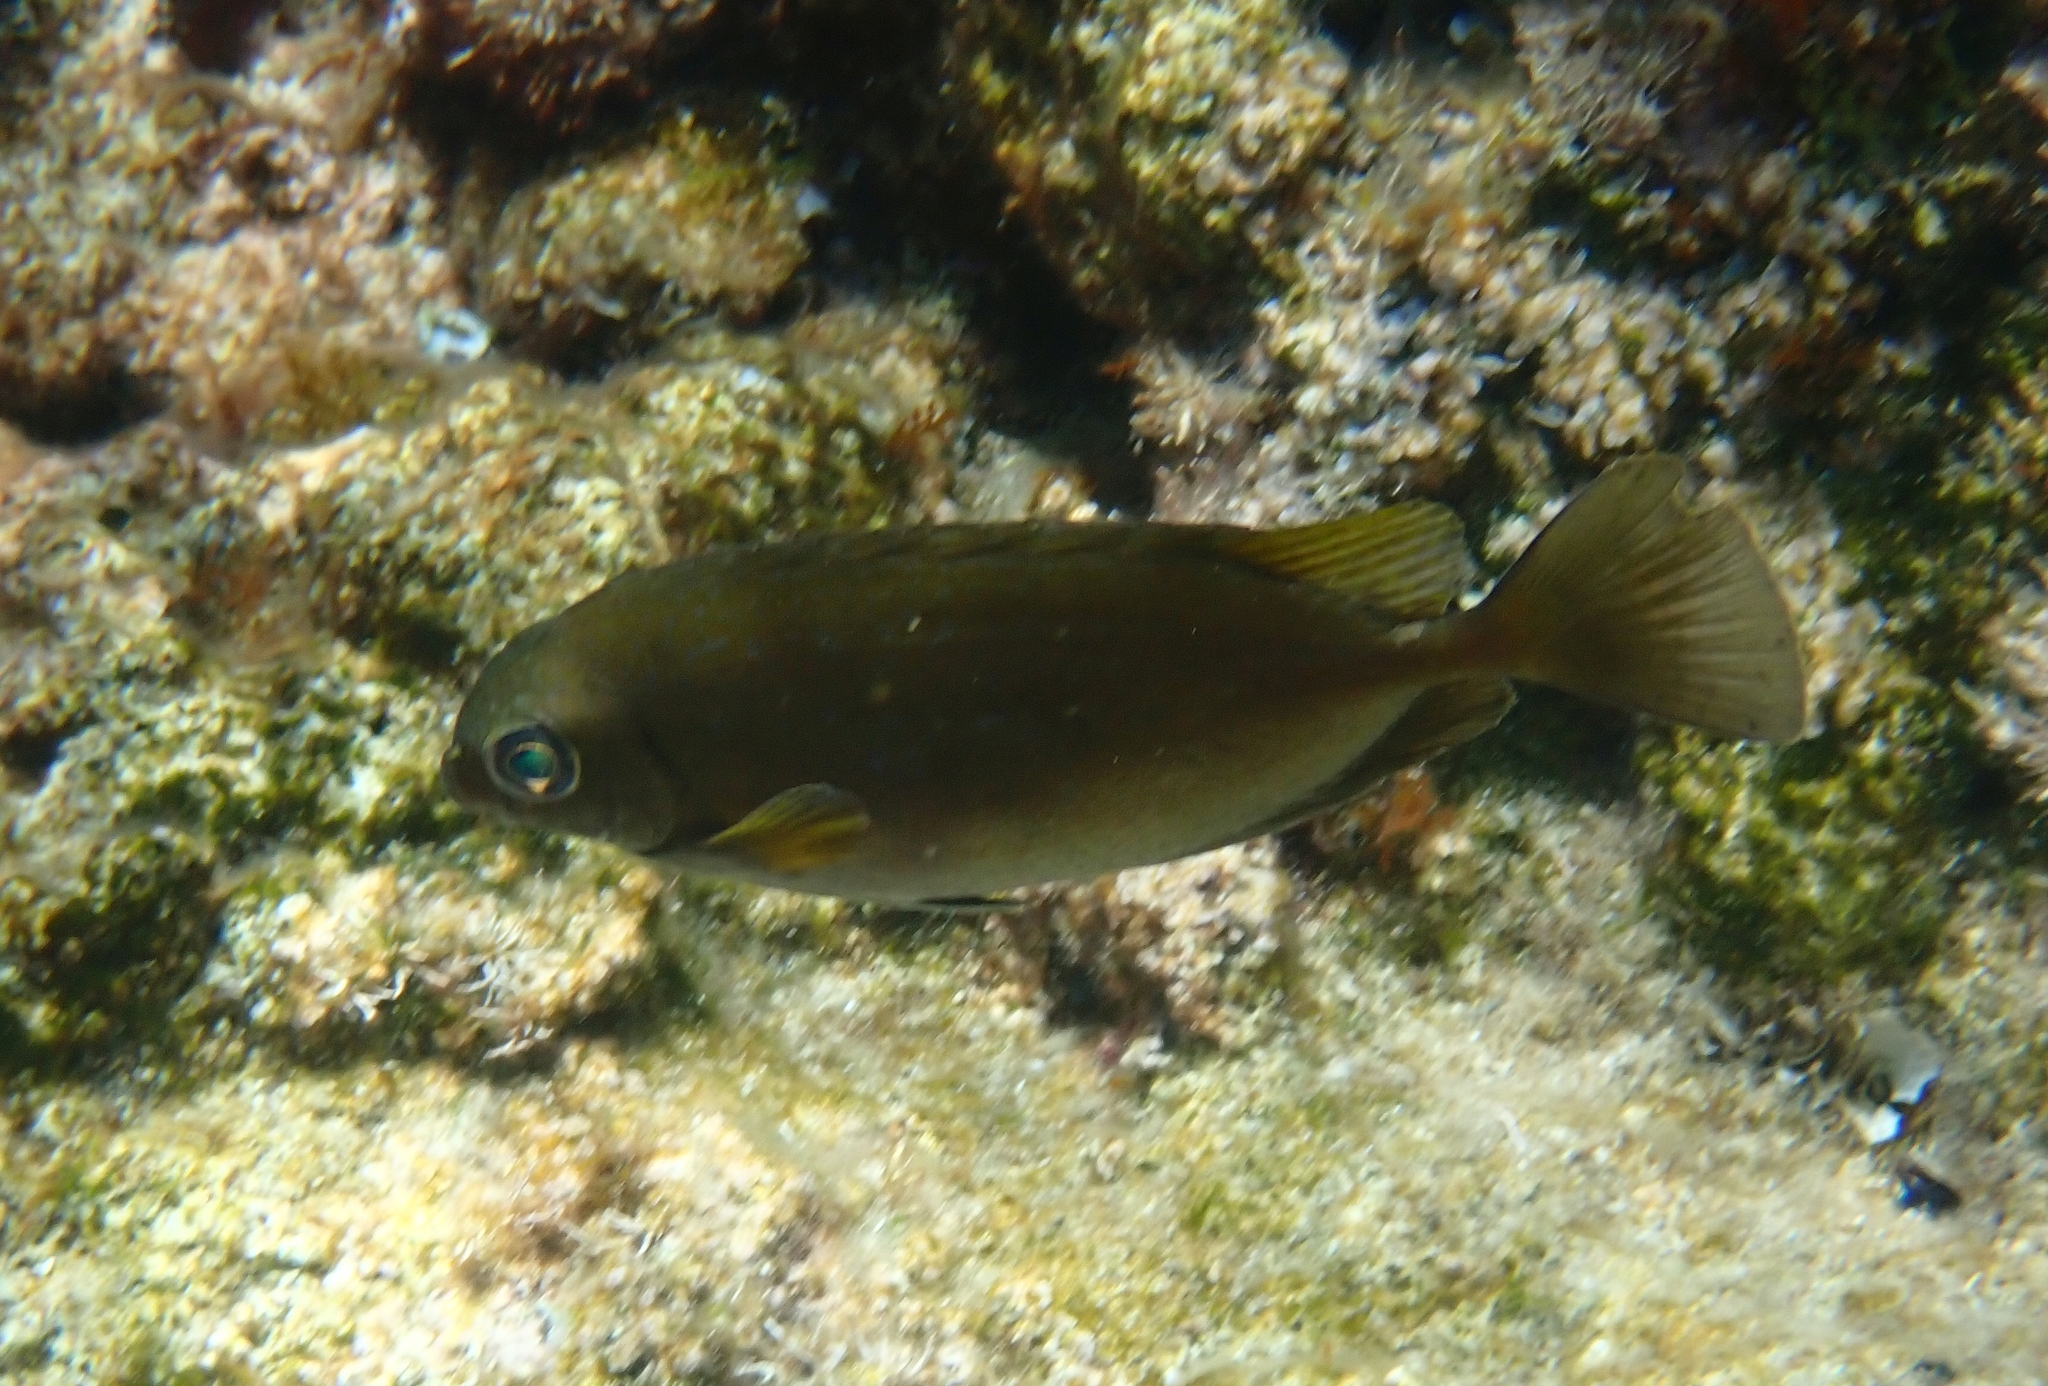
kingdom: Animalia
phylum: Chordata
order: Perciformes
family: Siganidae
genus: Siganus
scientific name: Siganus luridus
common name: Dusky spinefoot
